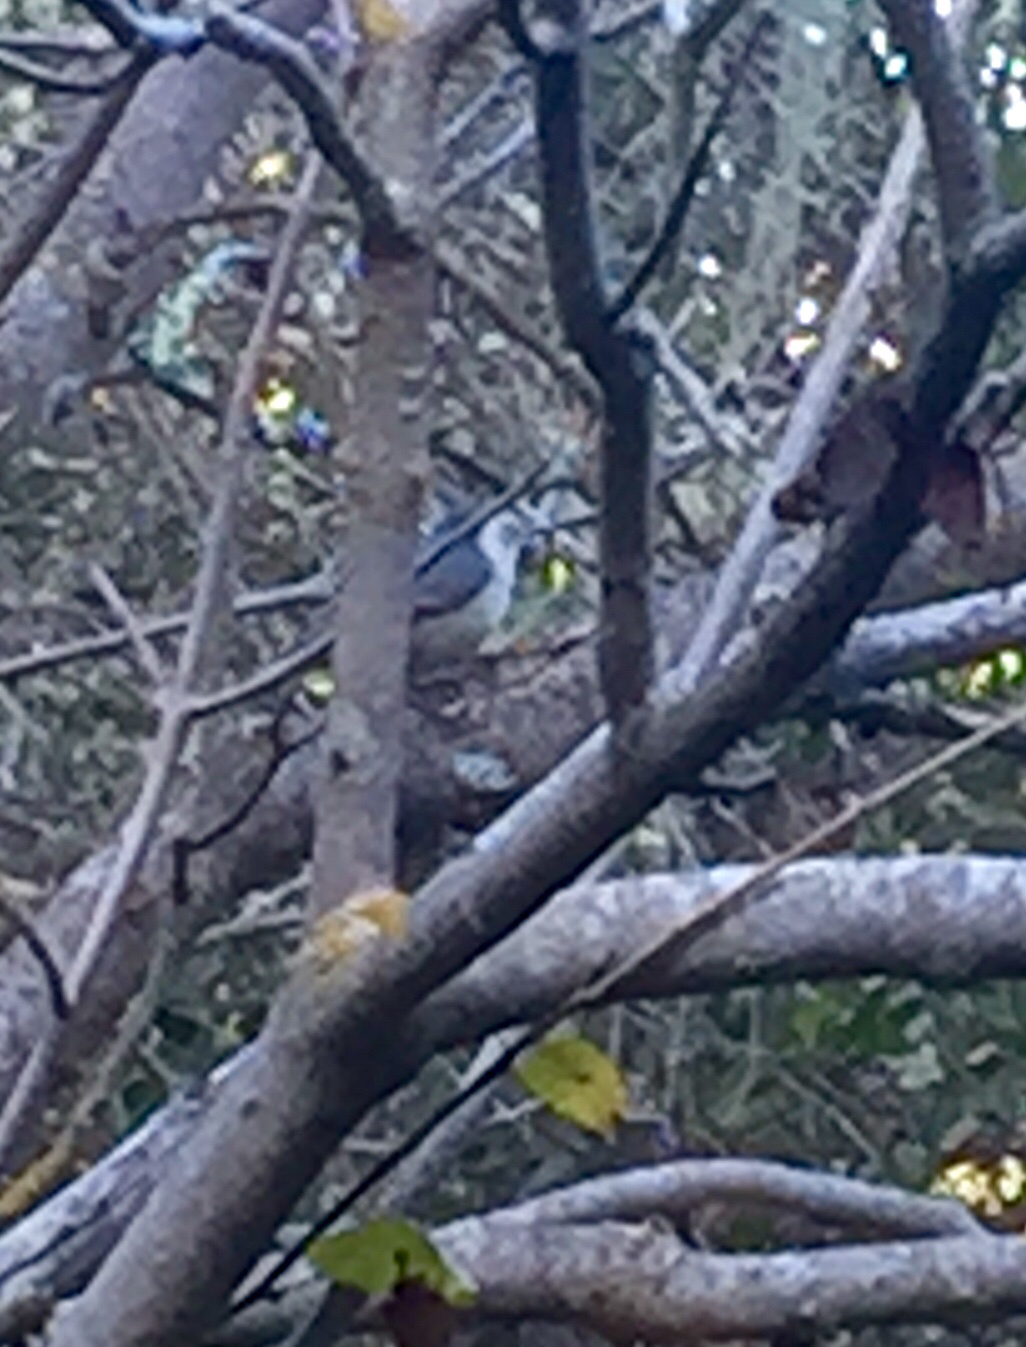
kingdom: Animalia
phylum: Chordata
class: Aves
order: Passeriformes
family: Sittidae
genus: Sitta
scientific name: Sitta carolinensis
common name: White-breasted nuthatch
